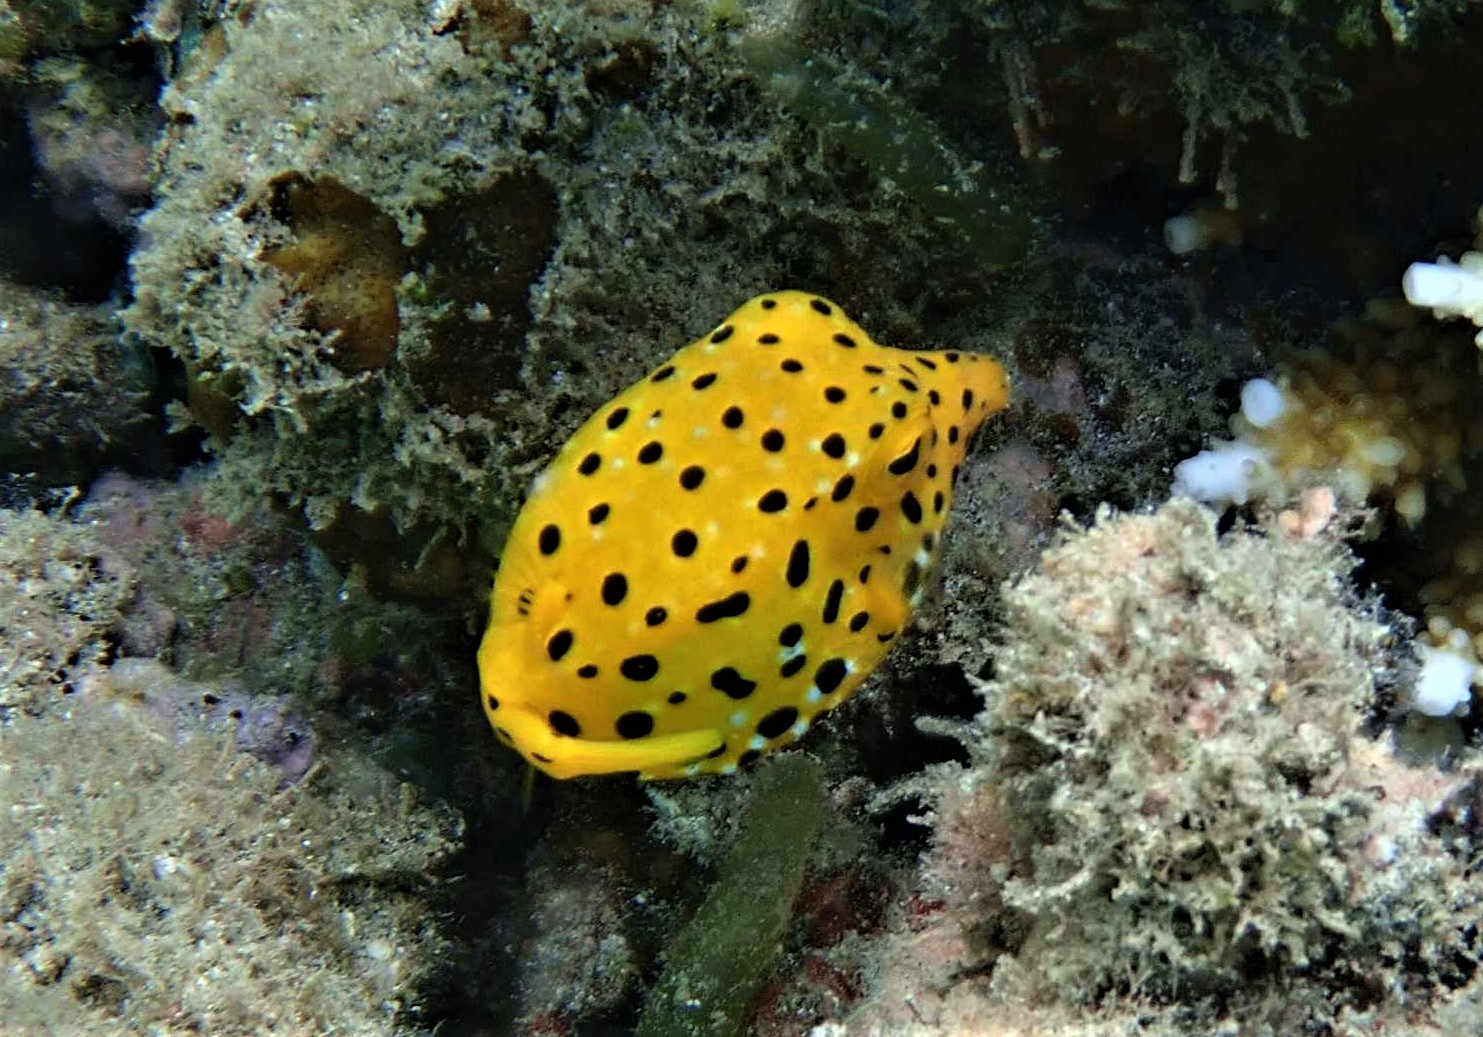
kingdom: Animalia
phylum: Chordata
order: Tetraodontiformes
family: Ostraciidae
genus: Ostracion
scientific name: Ostracion cubicus
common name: Cube trunkfish
